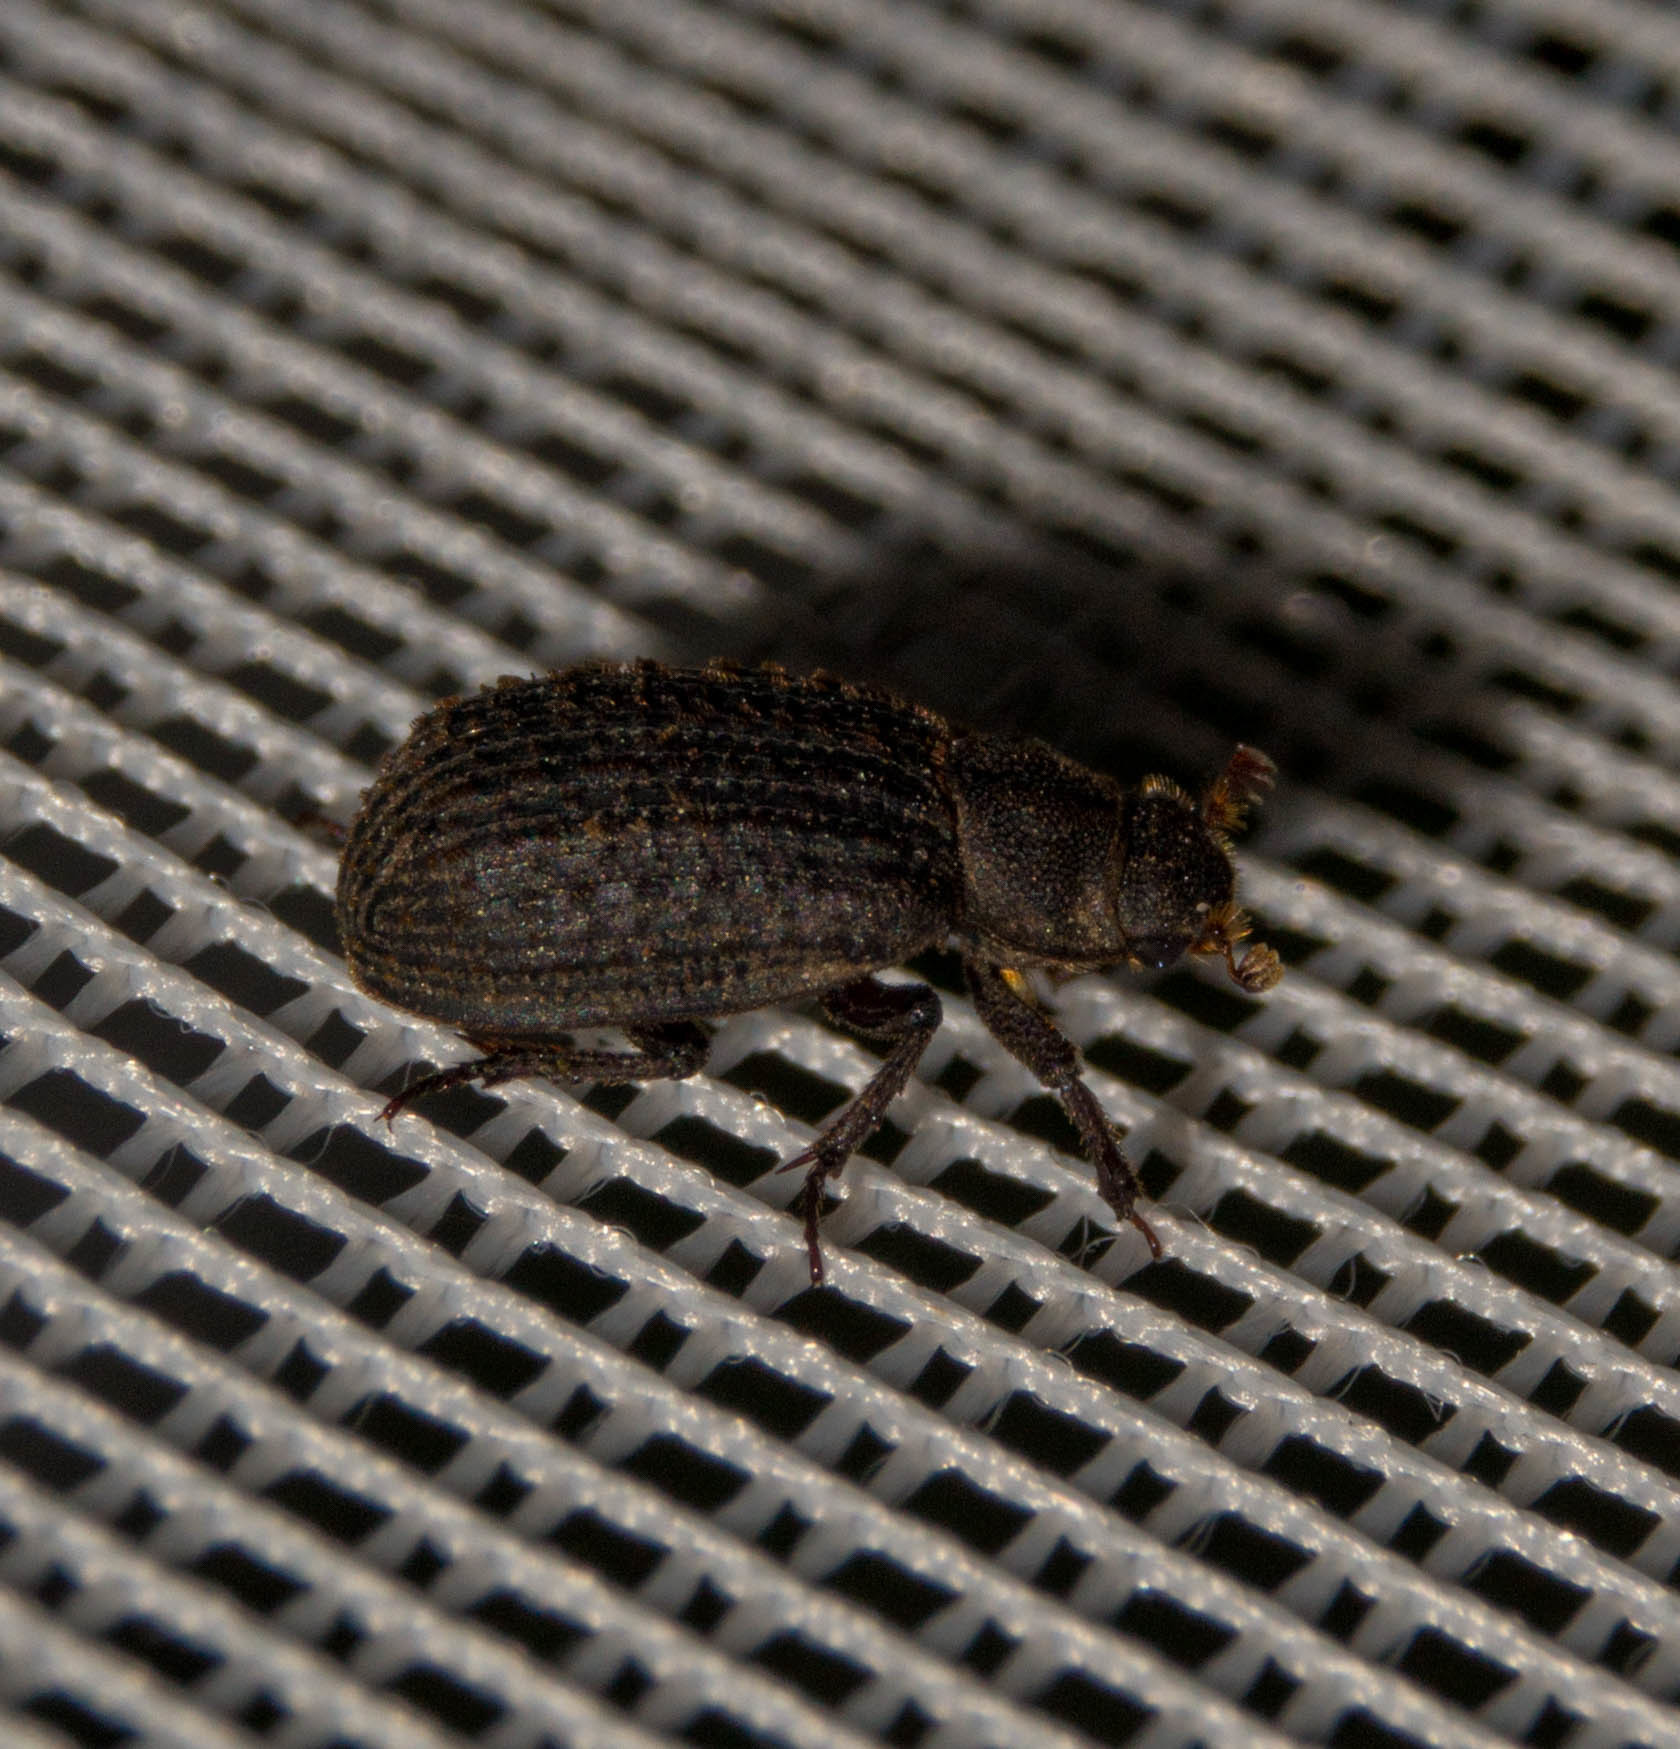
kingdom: Animalia
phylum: Arthropoda
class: Insecta
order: Coleoptera
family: Trogidae
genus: Trox
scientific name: Trox scaber
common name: Hide beetle
